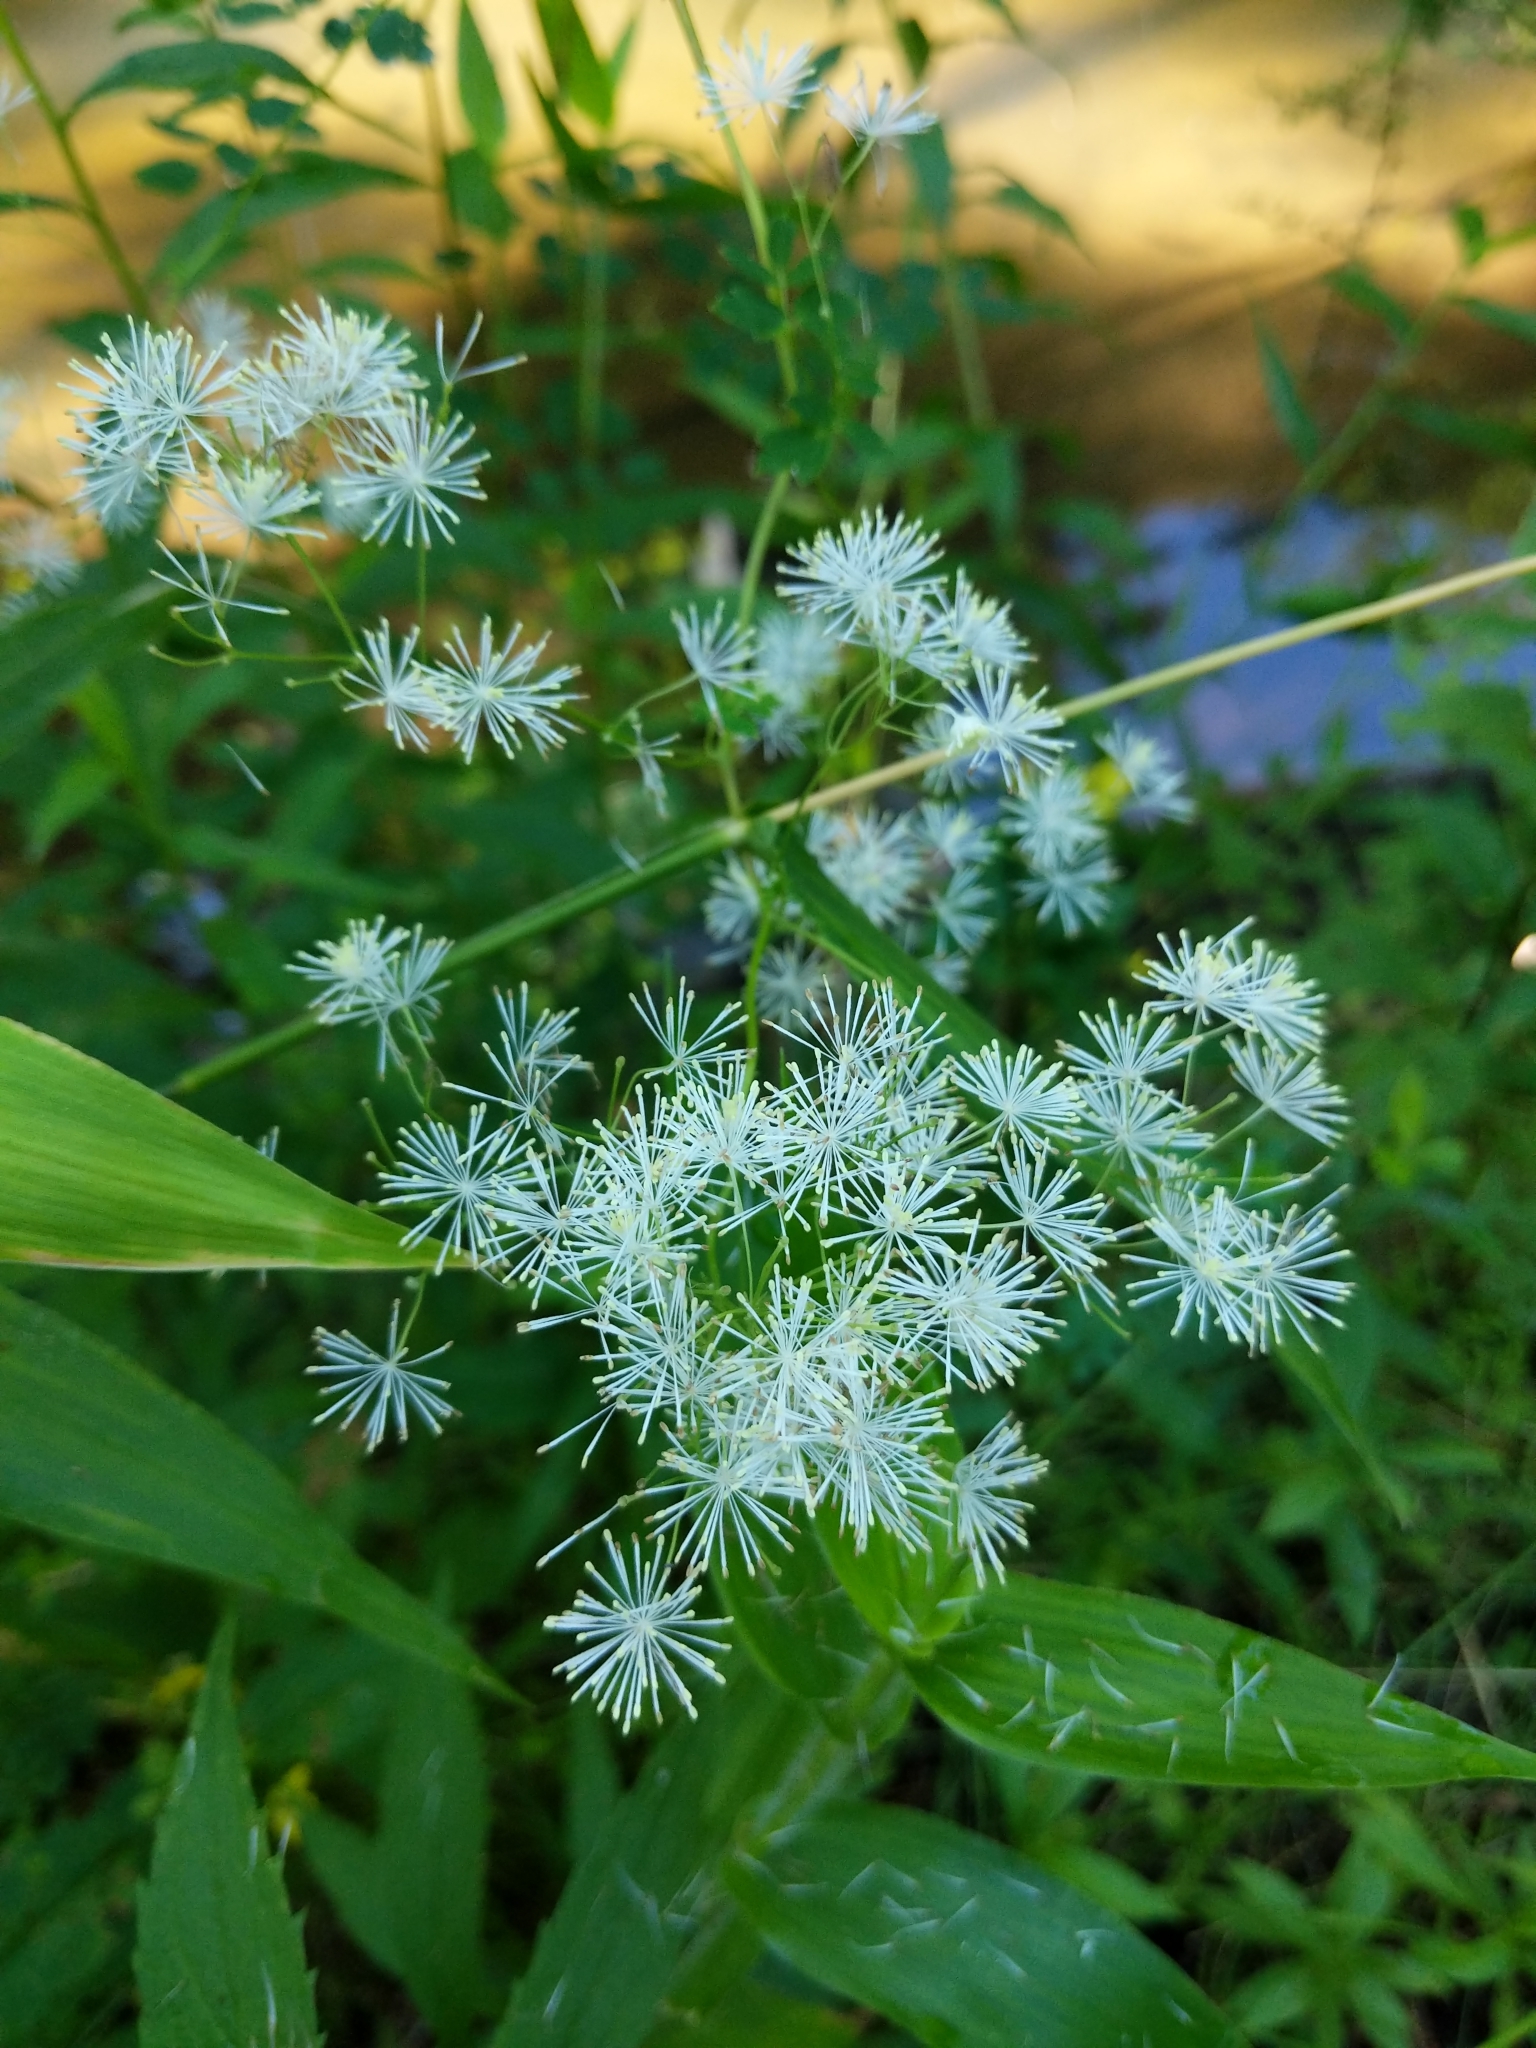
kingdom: Plantae
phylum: Tracheophyta
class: Magnoliopsida
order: Ranunculales
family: Ranunculaceae
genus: Thalictrum
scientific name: Thalictrum pubescens
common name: King-of-the-meadow
